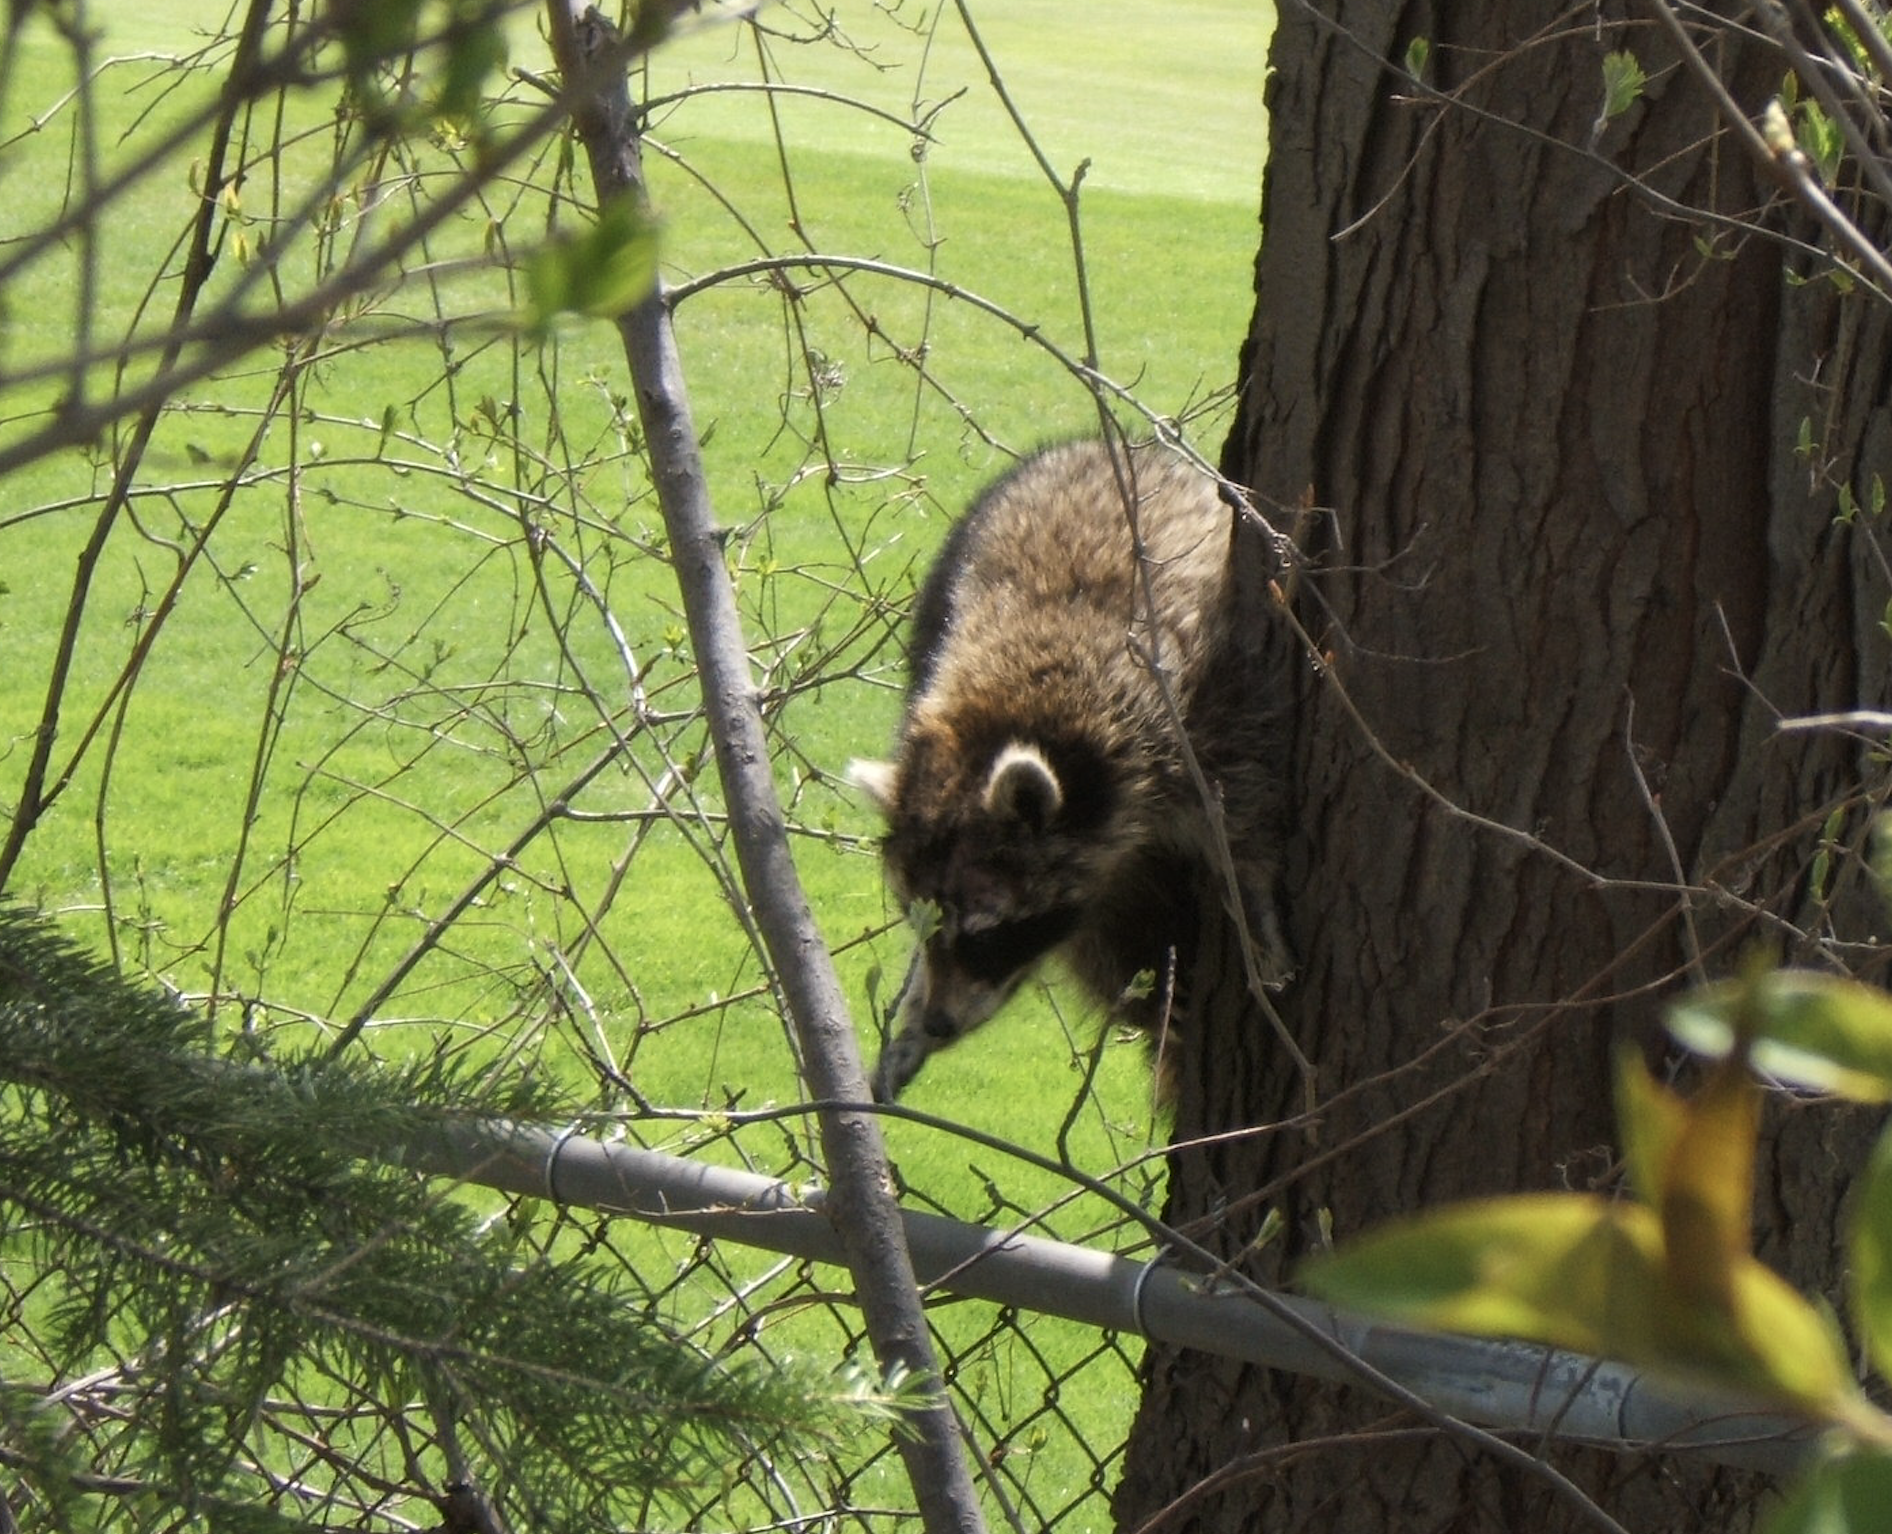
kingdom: Animalia
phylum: Chordata
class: Mammalia
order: Carnivora
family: Procyonidae
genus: Procyon
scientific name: Procyon lotor
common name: Raccoon
